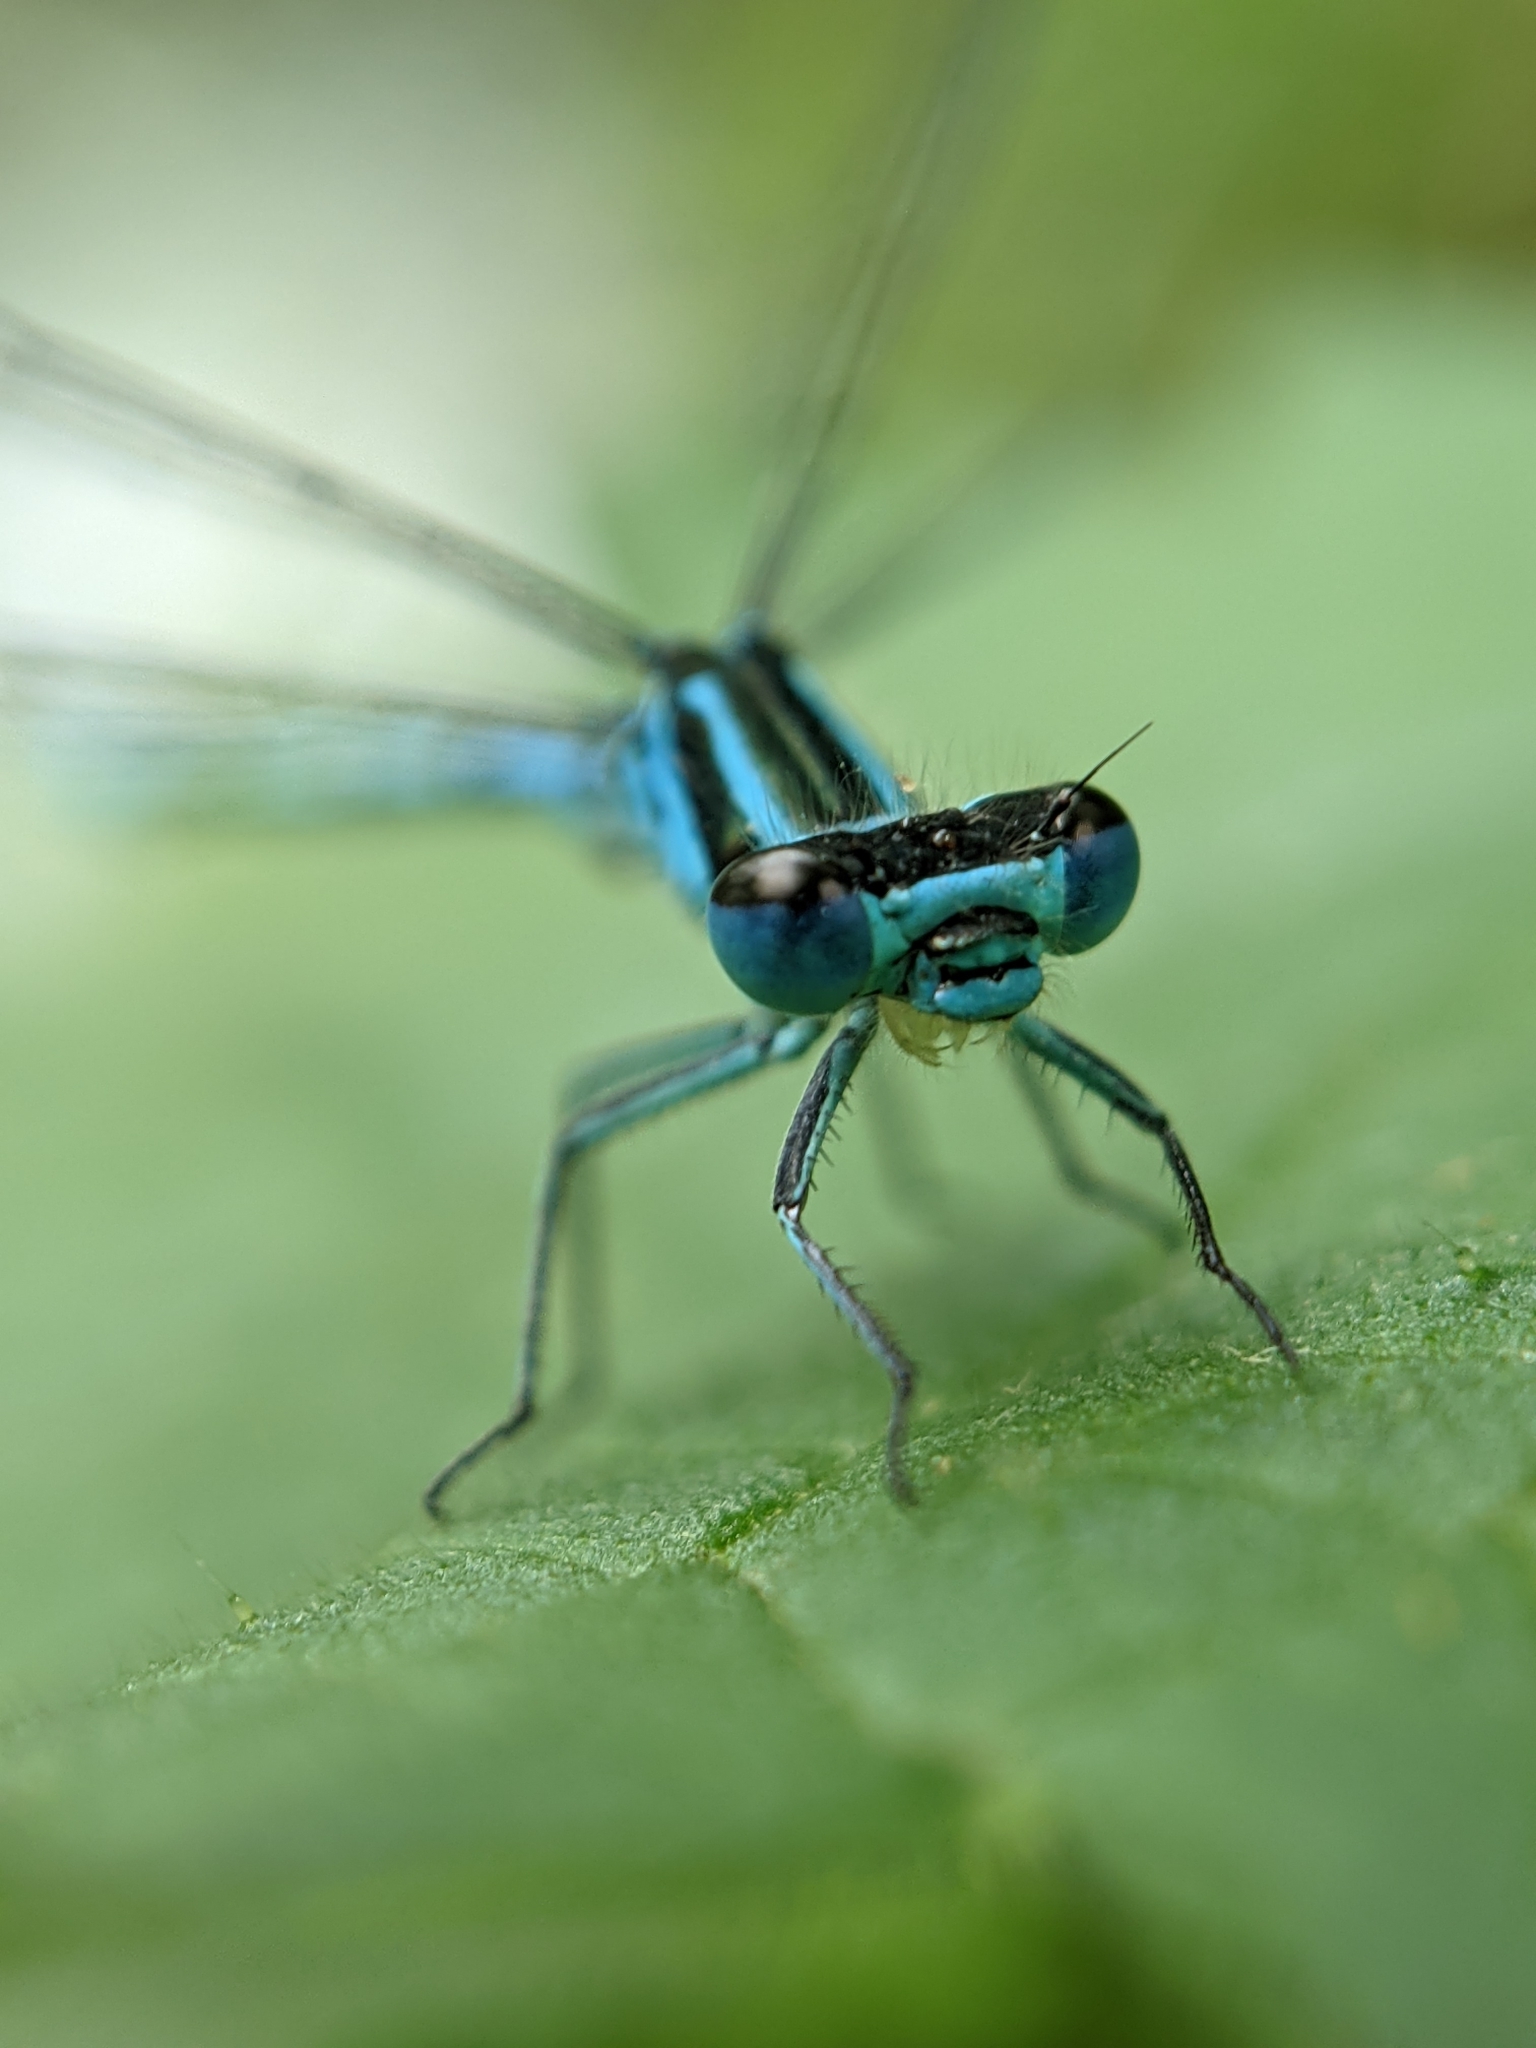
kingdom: Animalia
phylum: Arthropoda
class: Insecta
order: Odonata
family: Coenagrionidae
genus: Coenagrion
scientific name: Coenagrion puella
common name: Azure damselfly
